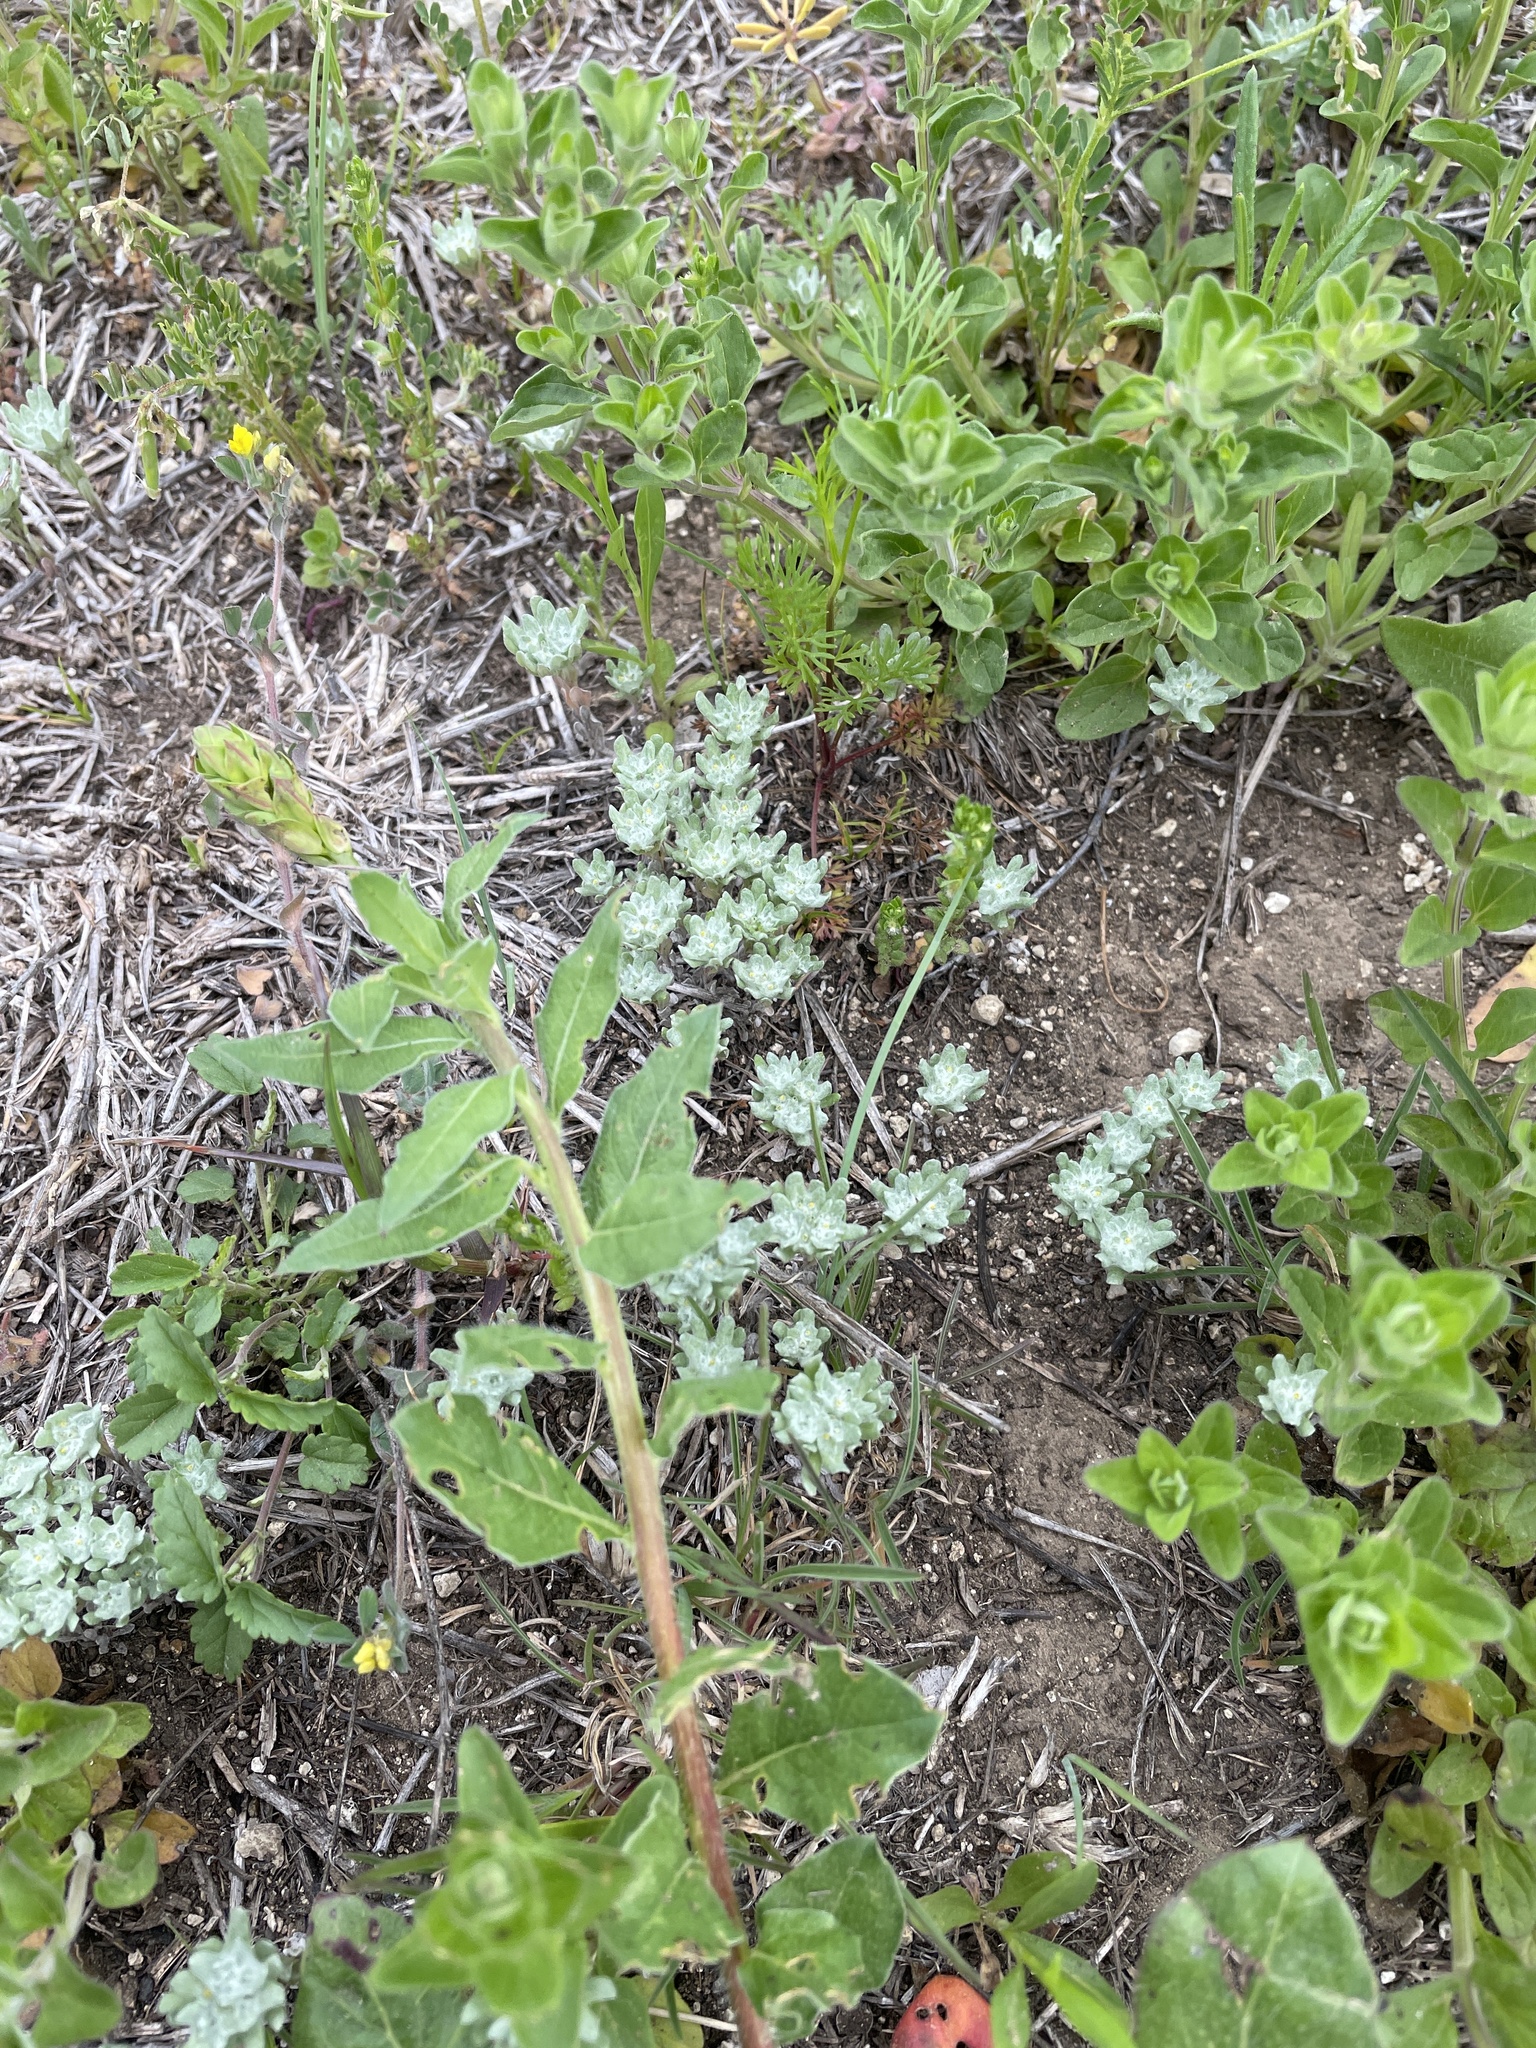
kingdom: Plantae
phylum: Tracheophyta
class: Magnoliopsida
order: Asterales
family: Asteraceae
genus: Diaperia
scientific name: Diaperia prolifera
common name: Big-head rabbit-tobacco
